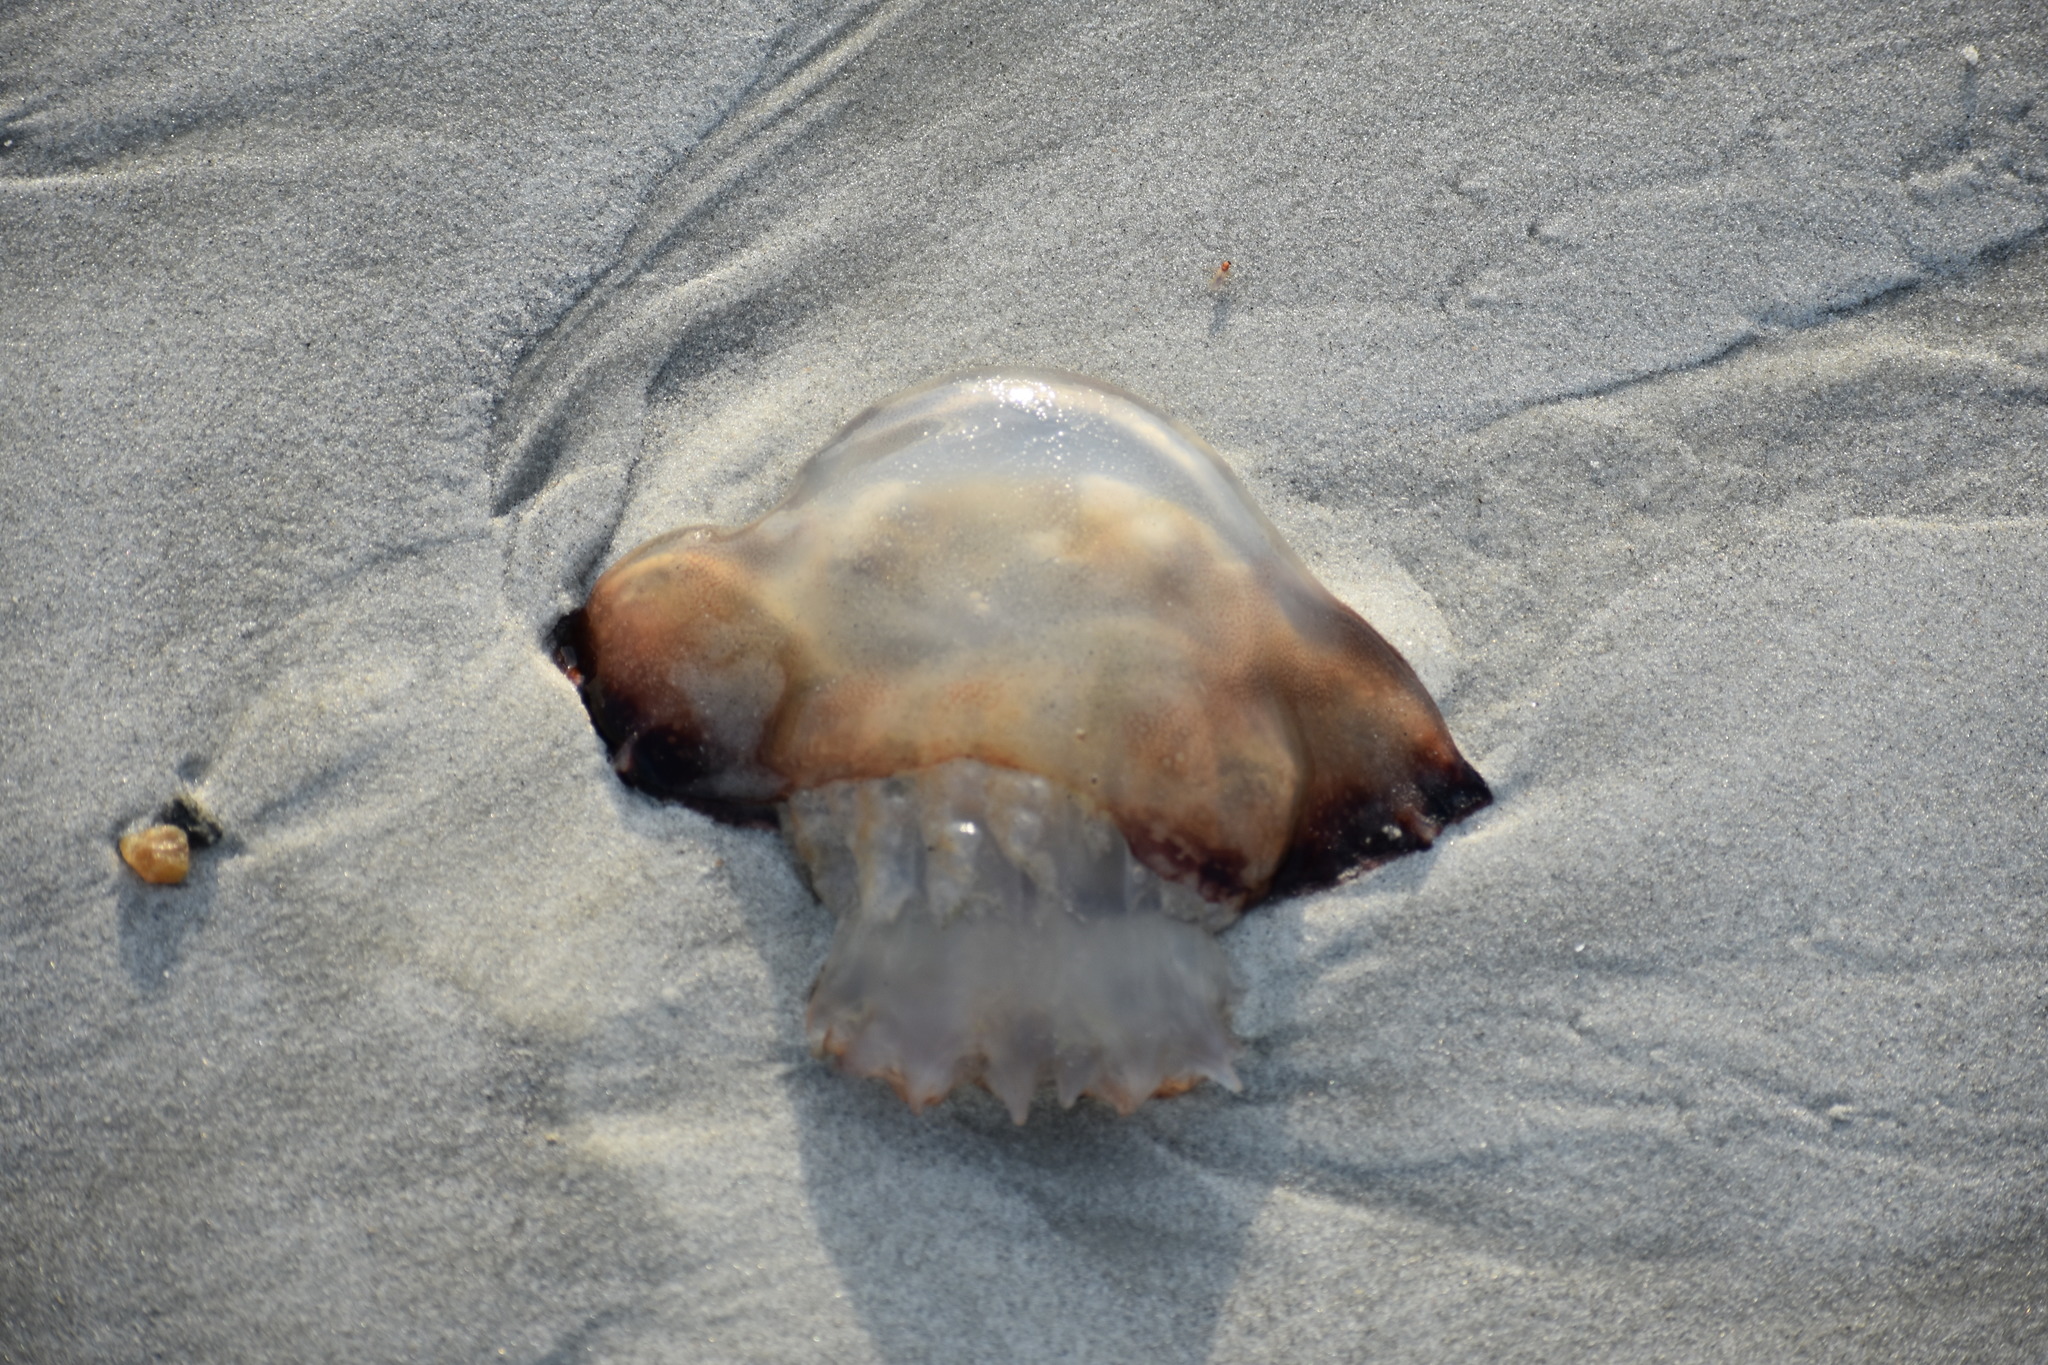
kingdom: Animalia
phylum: Cnidaria
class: Scyphozoa
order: Rhizostomeae
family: Stomolophidae
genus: Stomolophus
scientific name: Stomolophus meleagris
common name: Cabbagehead
